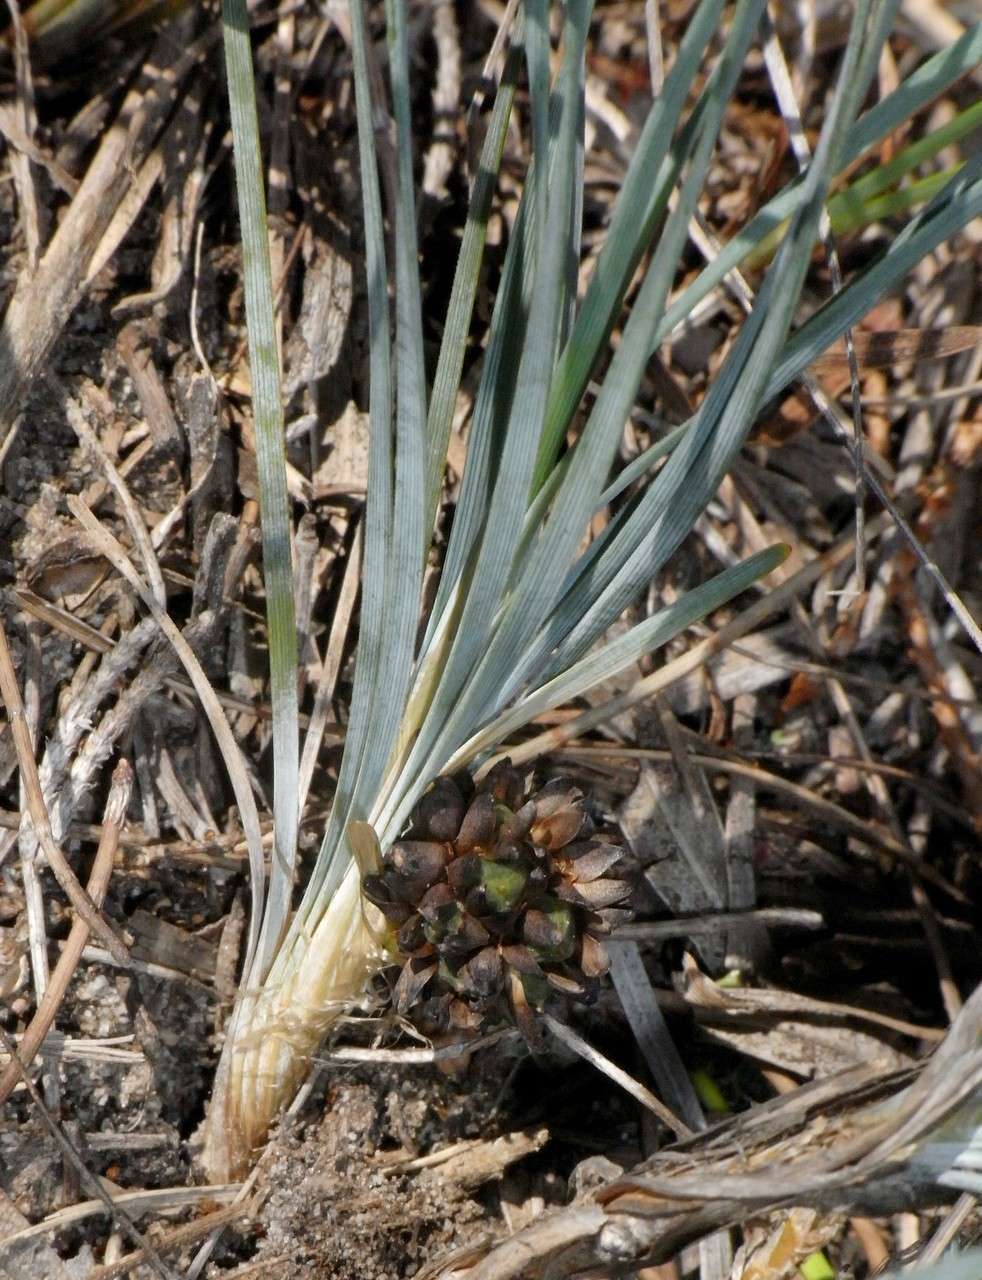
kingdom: Plantae
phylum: Tracheophyta
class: Liliopsida
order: Asparagales
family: Asparagaceae
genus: Lomandra
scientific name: Lomandra glauca
